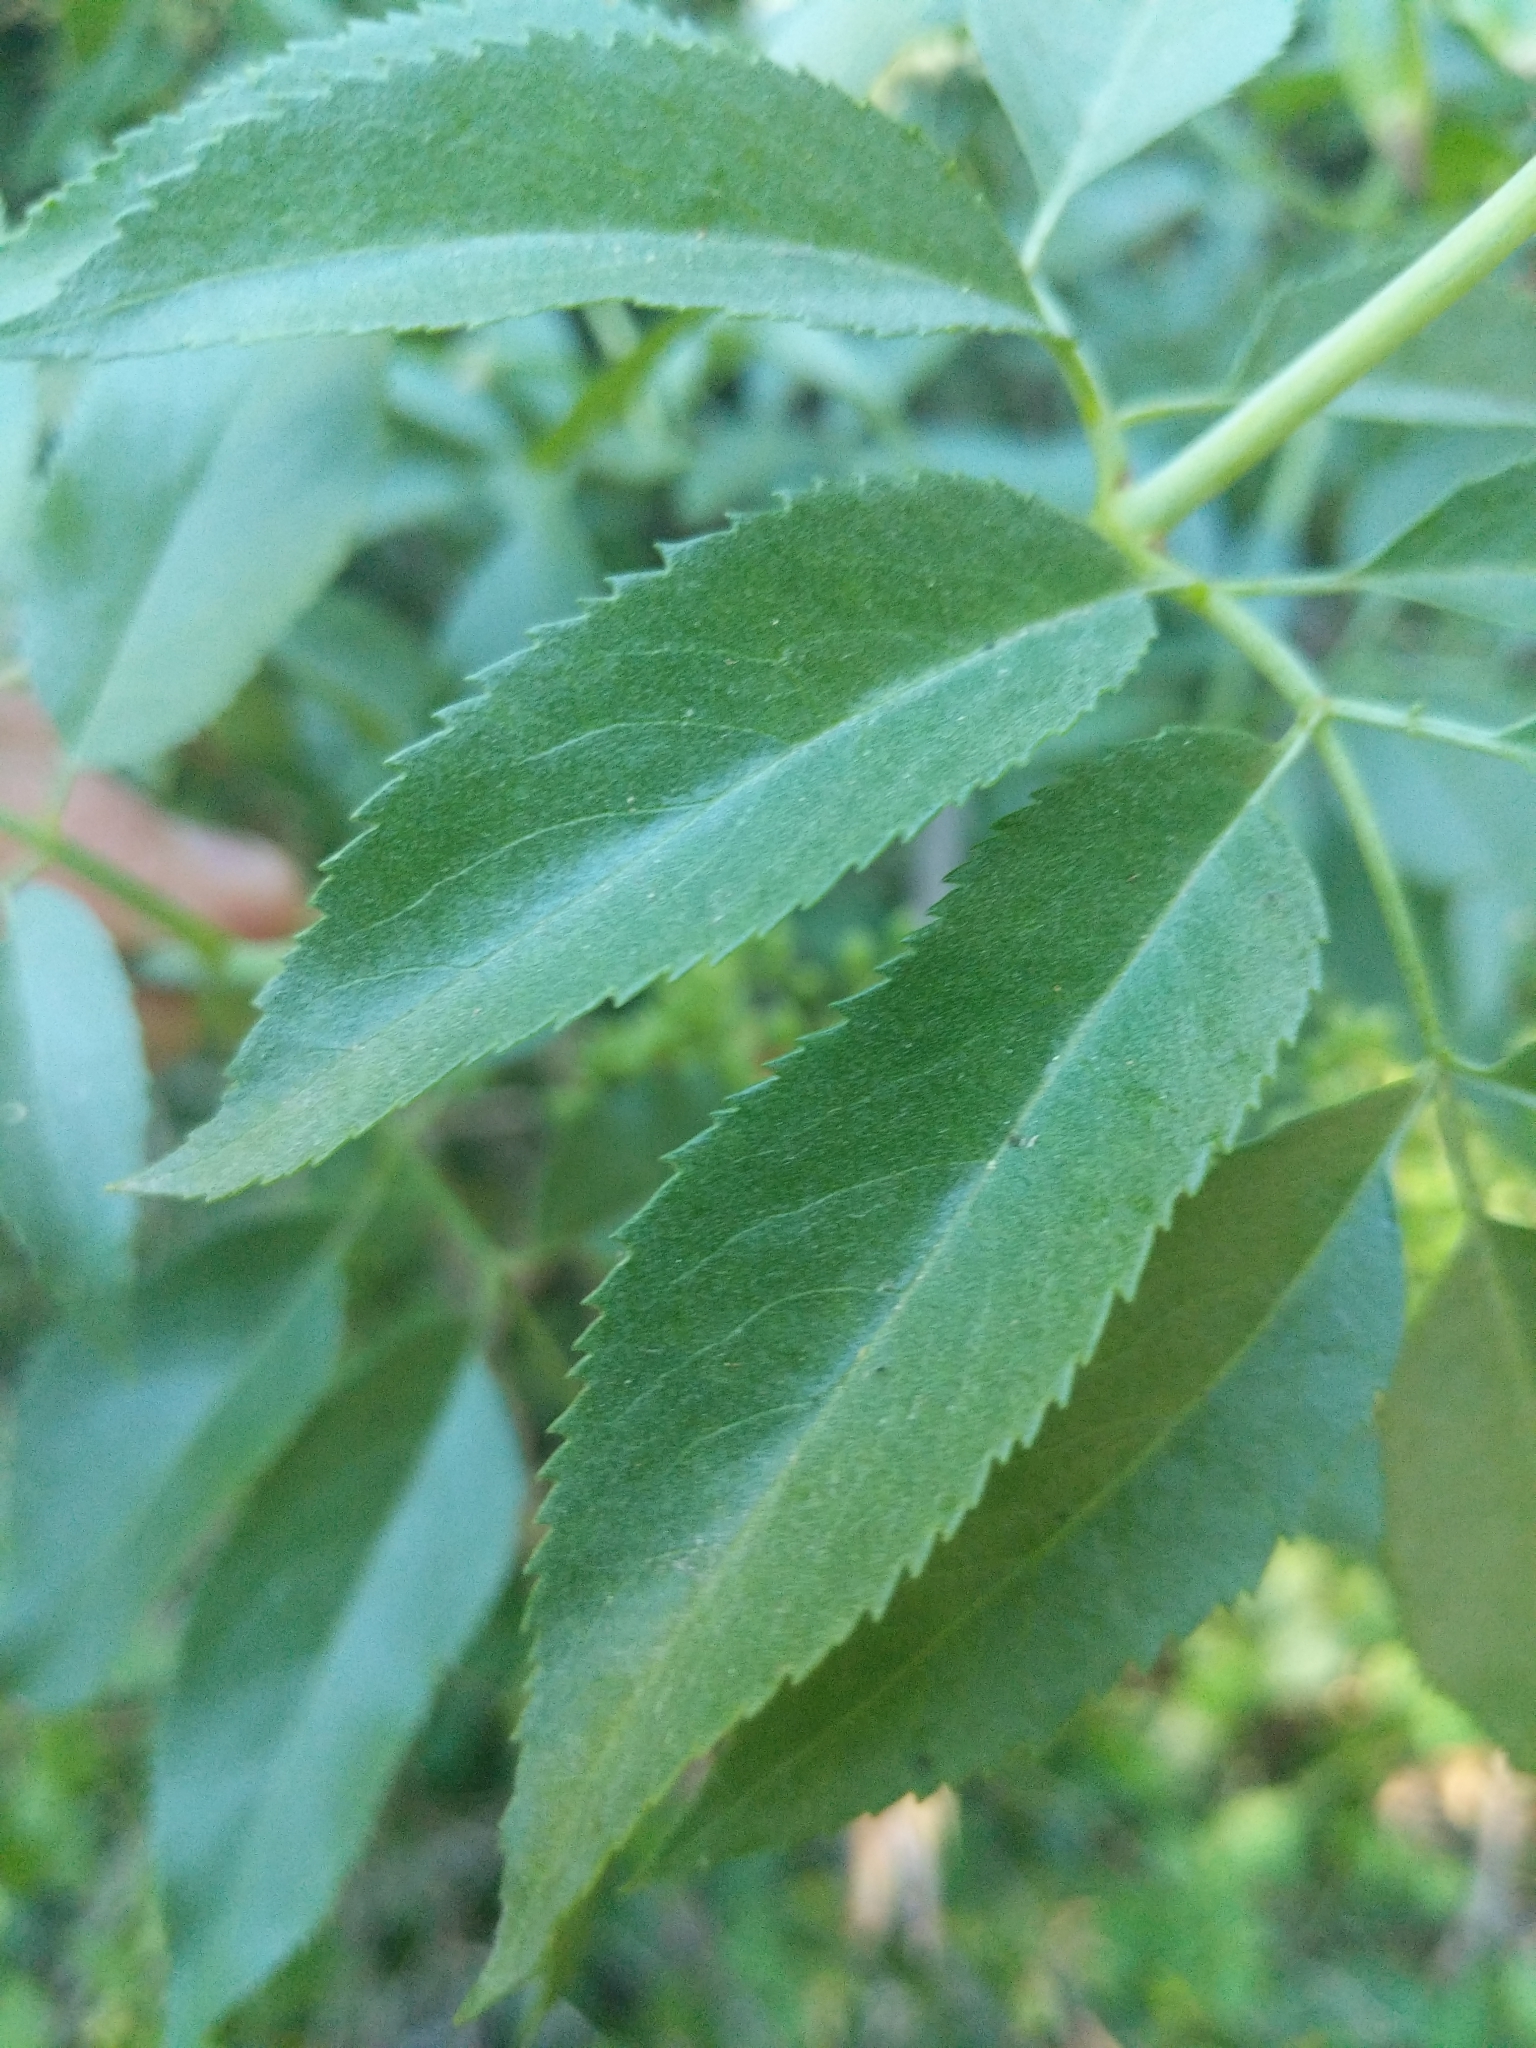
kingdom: Plantae
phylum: Tracheophyta
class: Magnoliopsida
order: Dipsacales
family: Viburnaceae
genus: Sambucus
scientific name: Sambucus cerulea
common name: Blue elder
